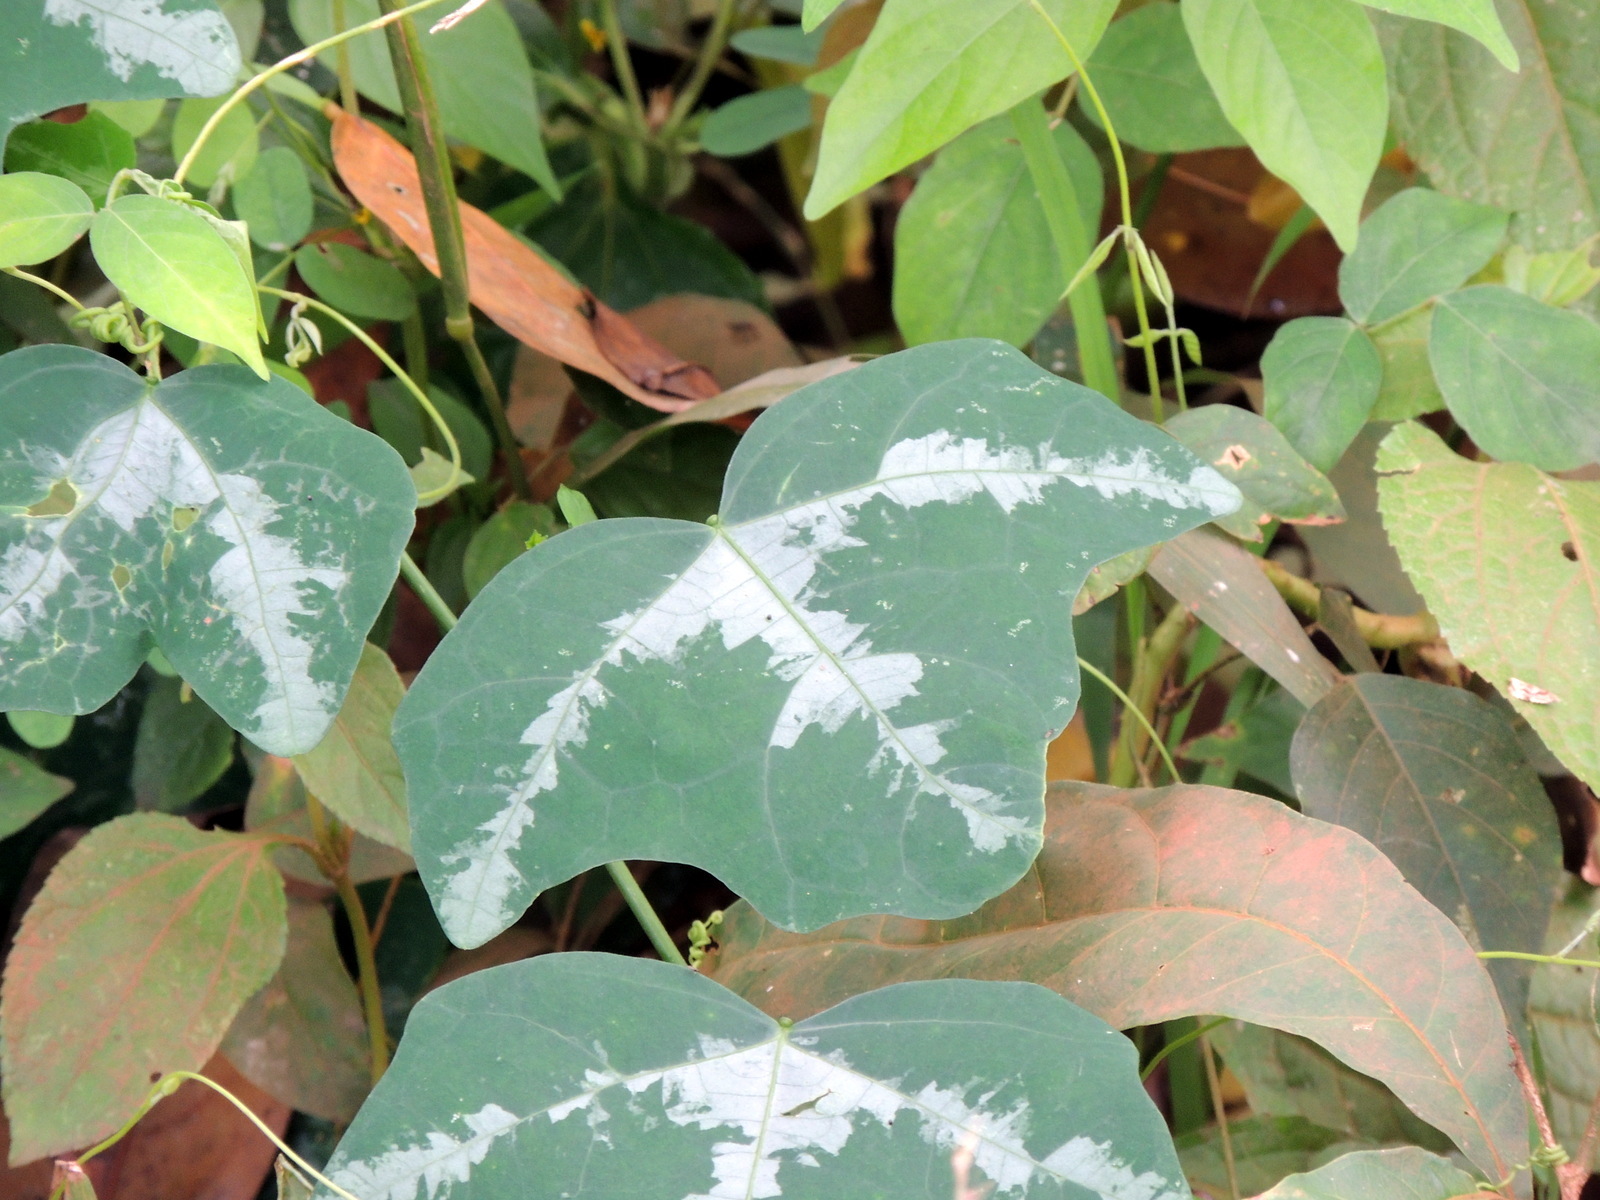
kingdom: Plantae
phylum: Tracheophyta
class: Magnoliopsida
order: Malpighiales
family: Passifloraceae
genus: Adenia
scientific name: Adenia cissampeloides
